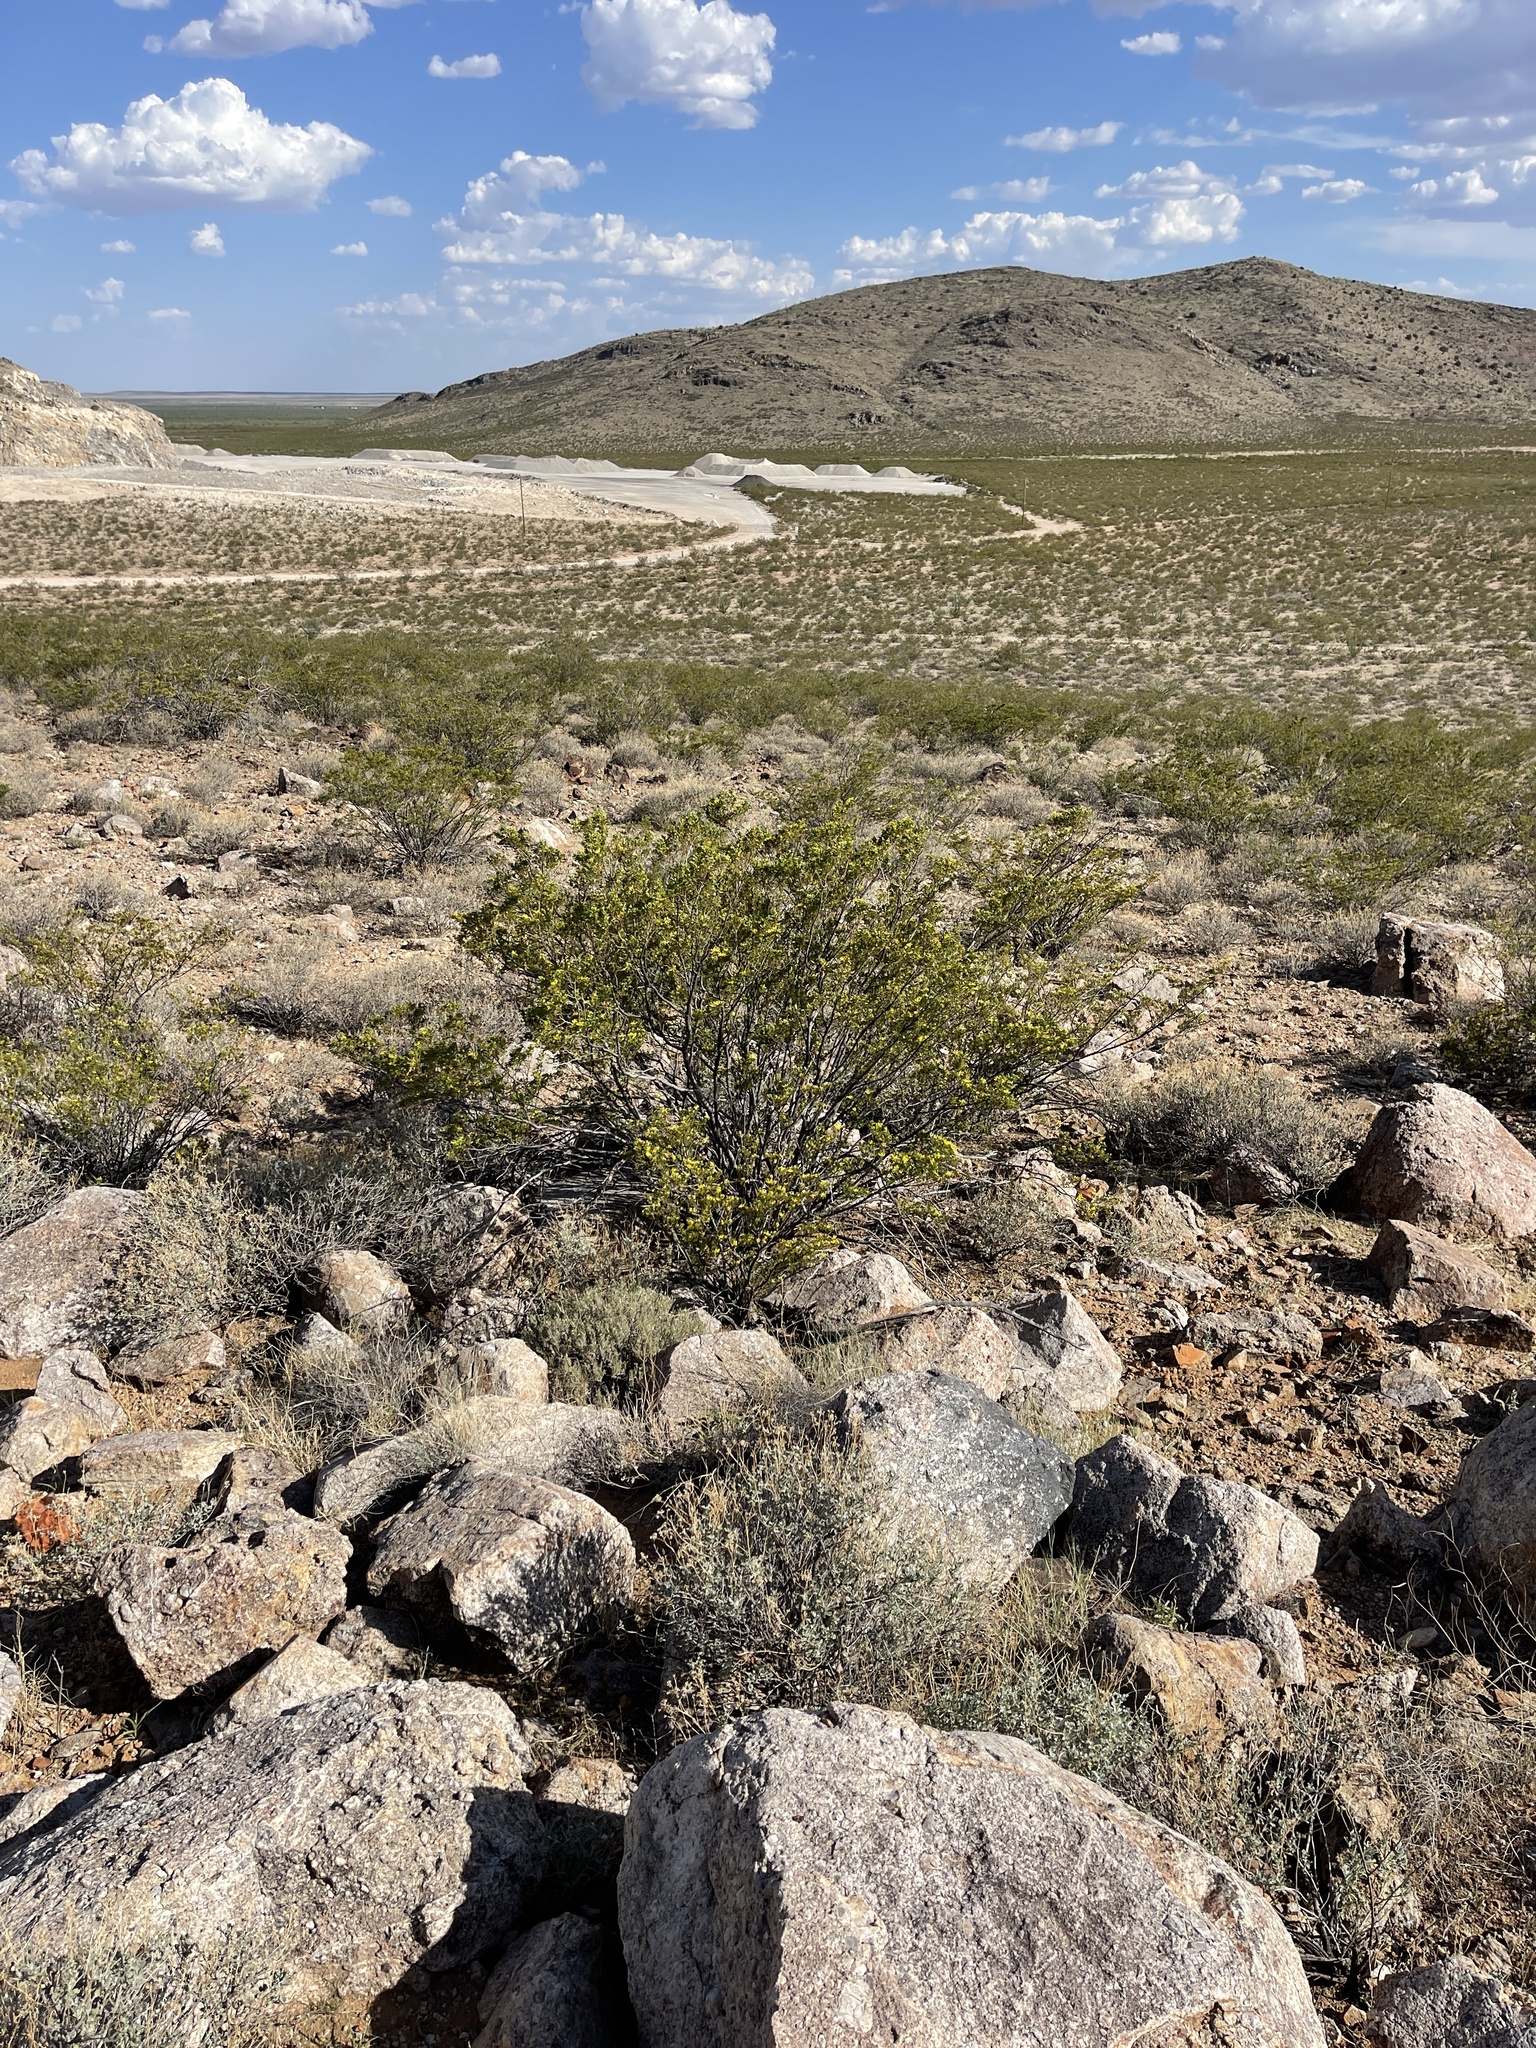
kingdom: Plantae
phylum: Tracheophyta
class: Magnoliopsida
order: Zygophyllales
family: Zygophyllaceae
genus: Larrea
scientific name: Larrea tridentata
